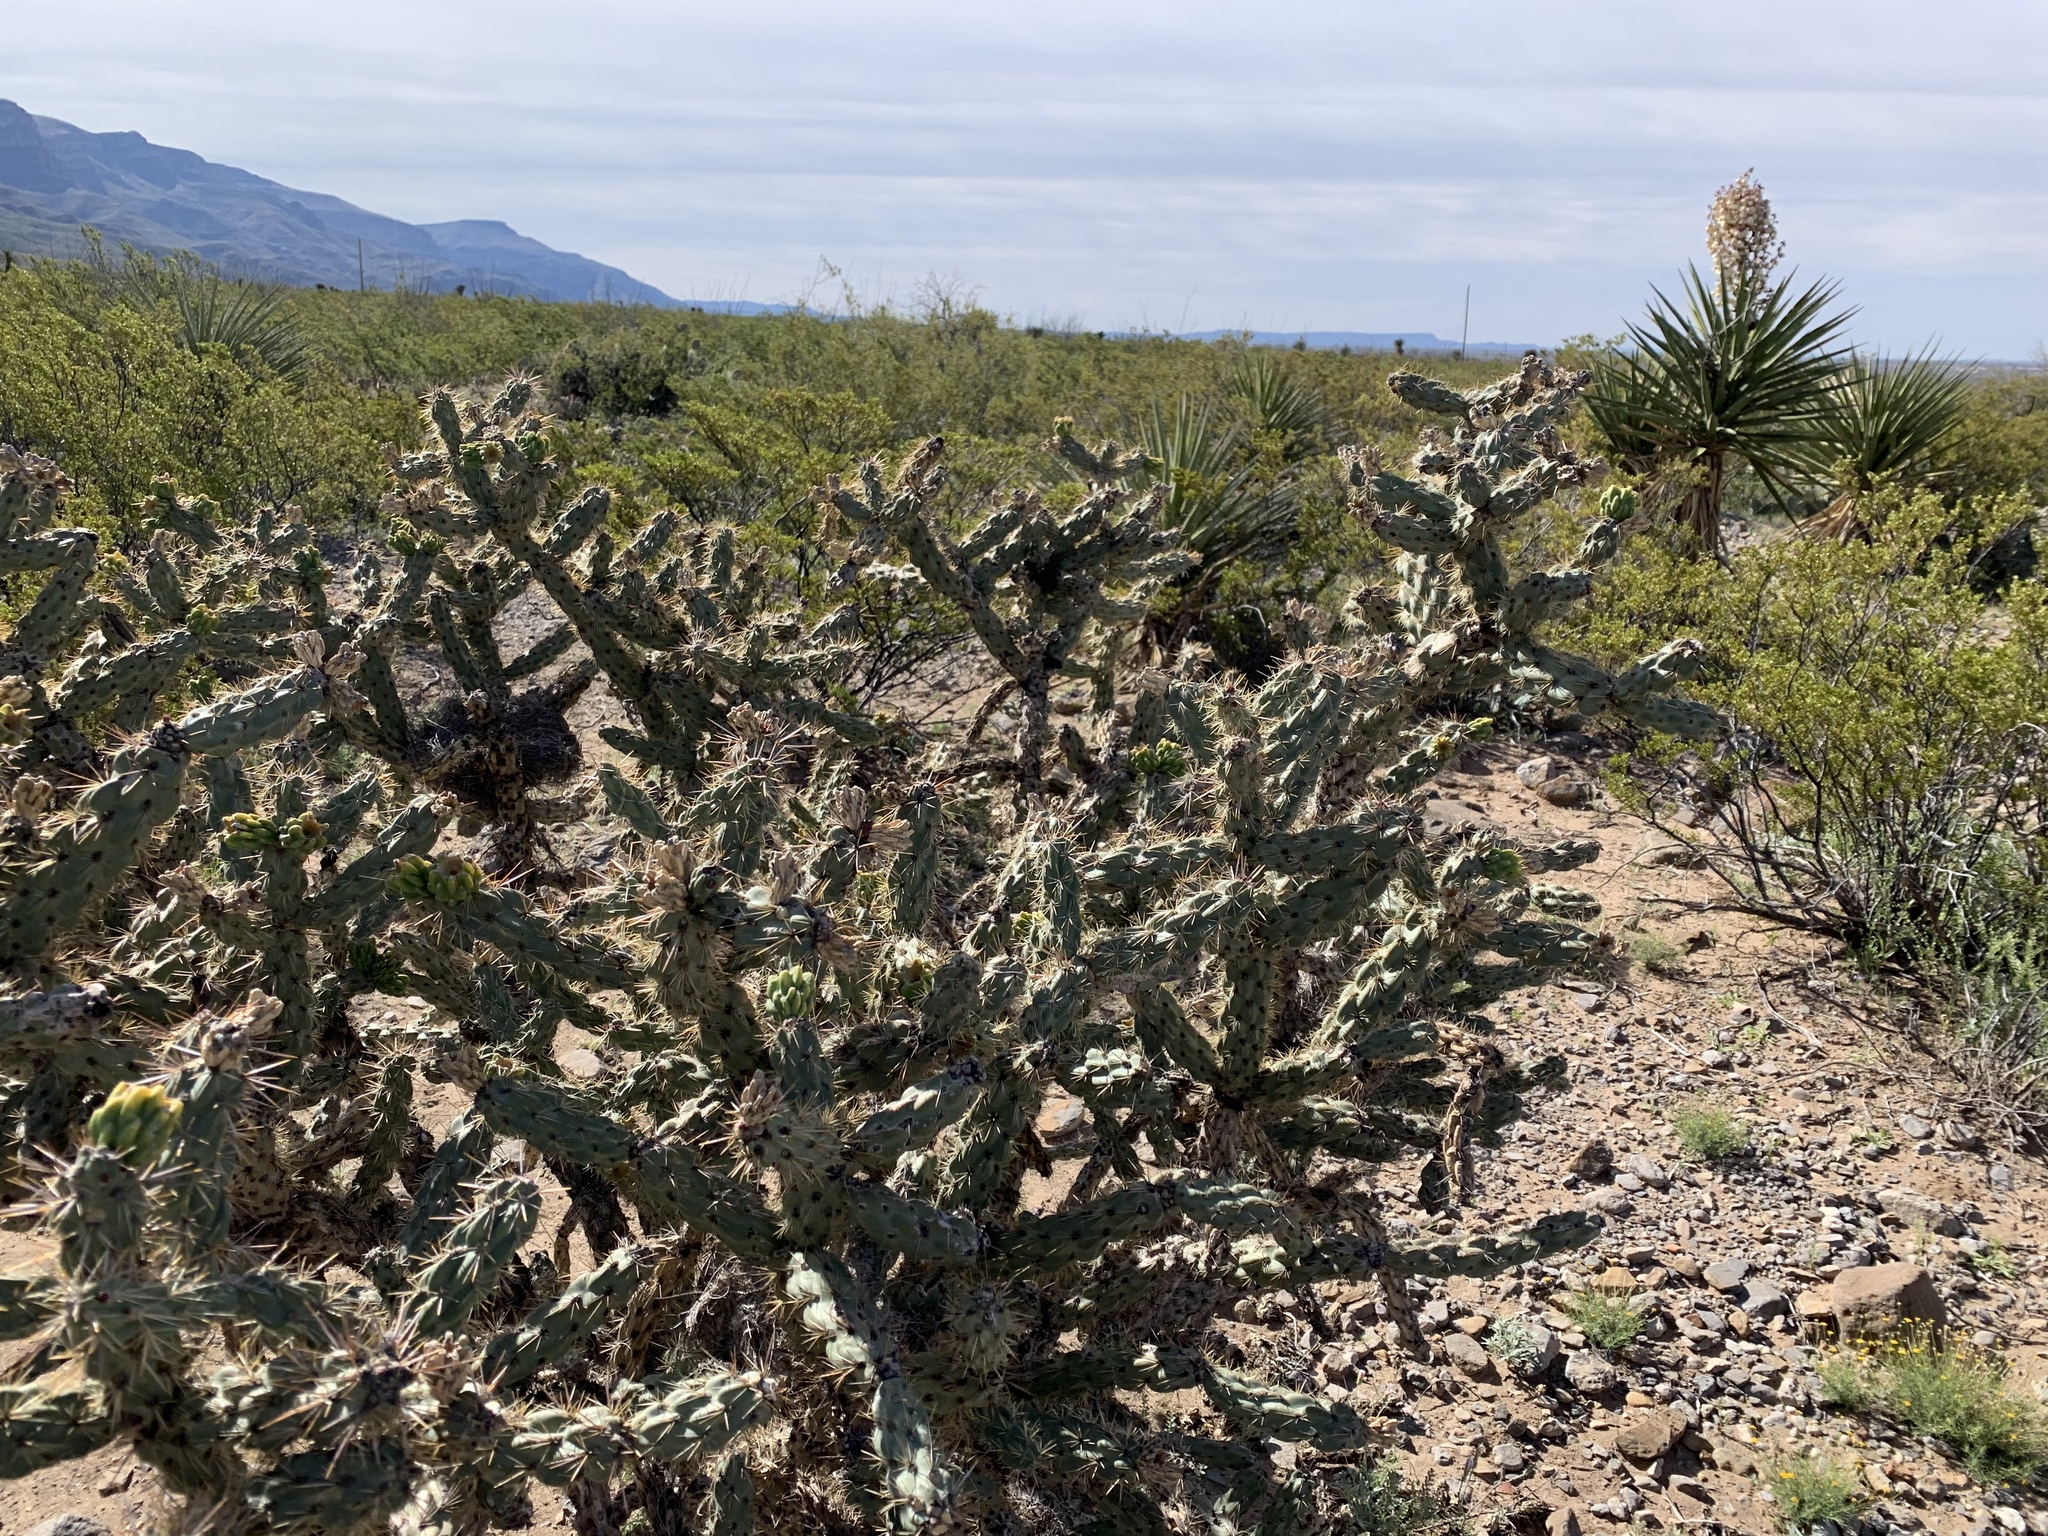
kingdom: Plantae
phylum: Tracheophyta
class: Magnoliopsida
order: Caryophyllales
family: Cactaceae
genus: Cylindropuntia
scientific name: Cylindropuntia imbricata
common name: Candelabrum cactus
